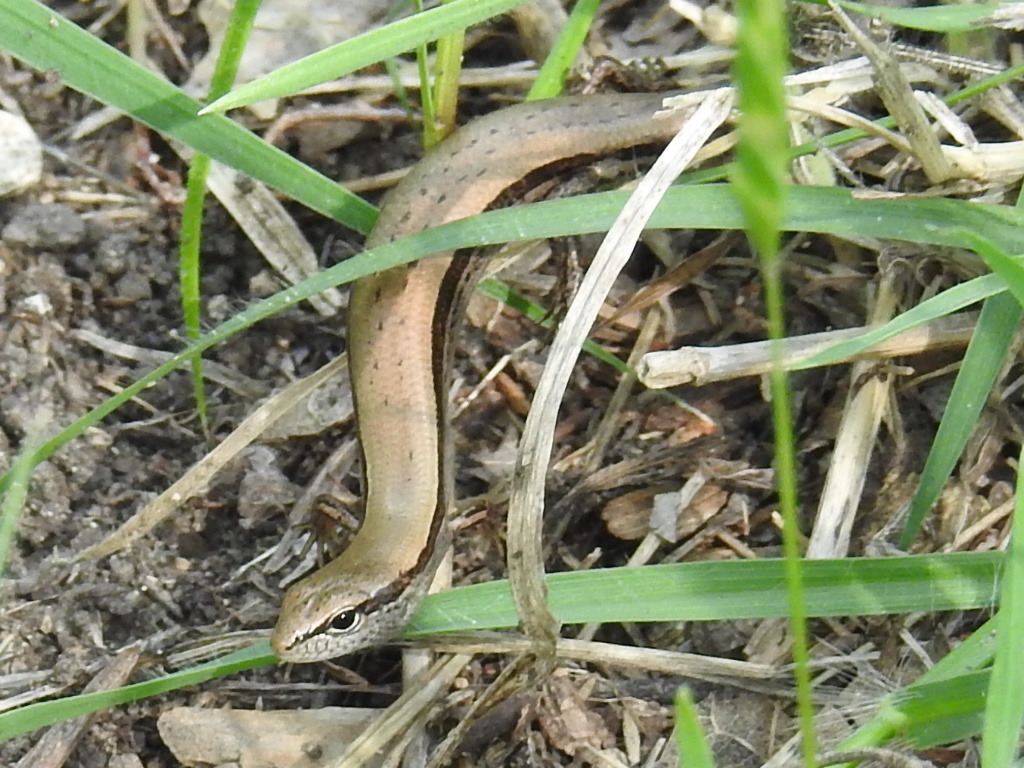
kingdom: Animalia
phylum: Chordata
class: Squamata
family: Scincidae
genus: Scincella
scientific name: Scincella lateralis
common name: Ground skink
